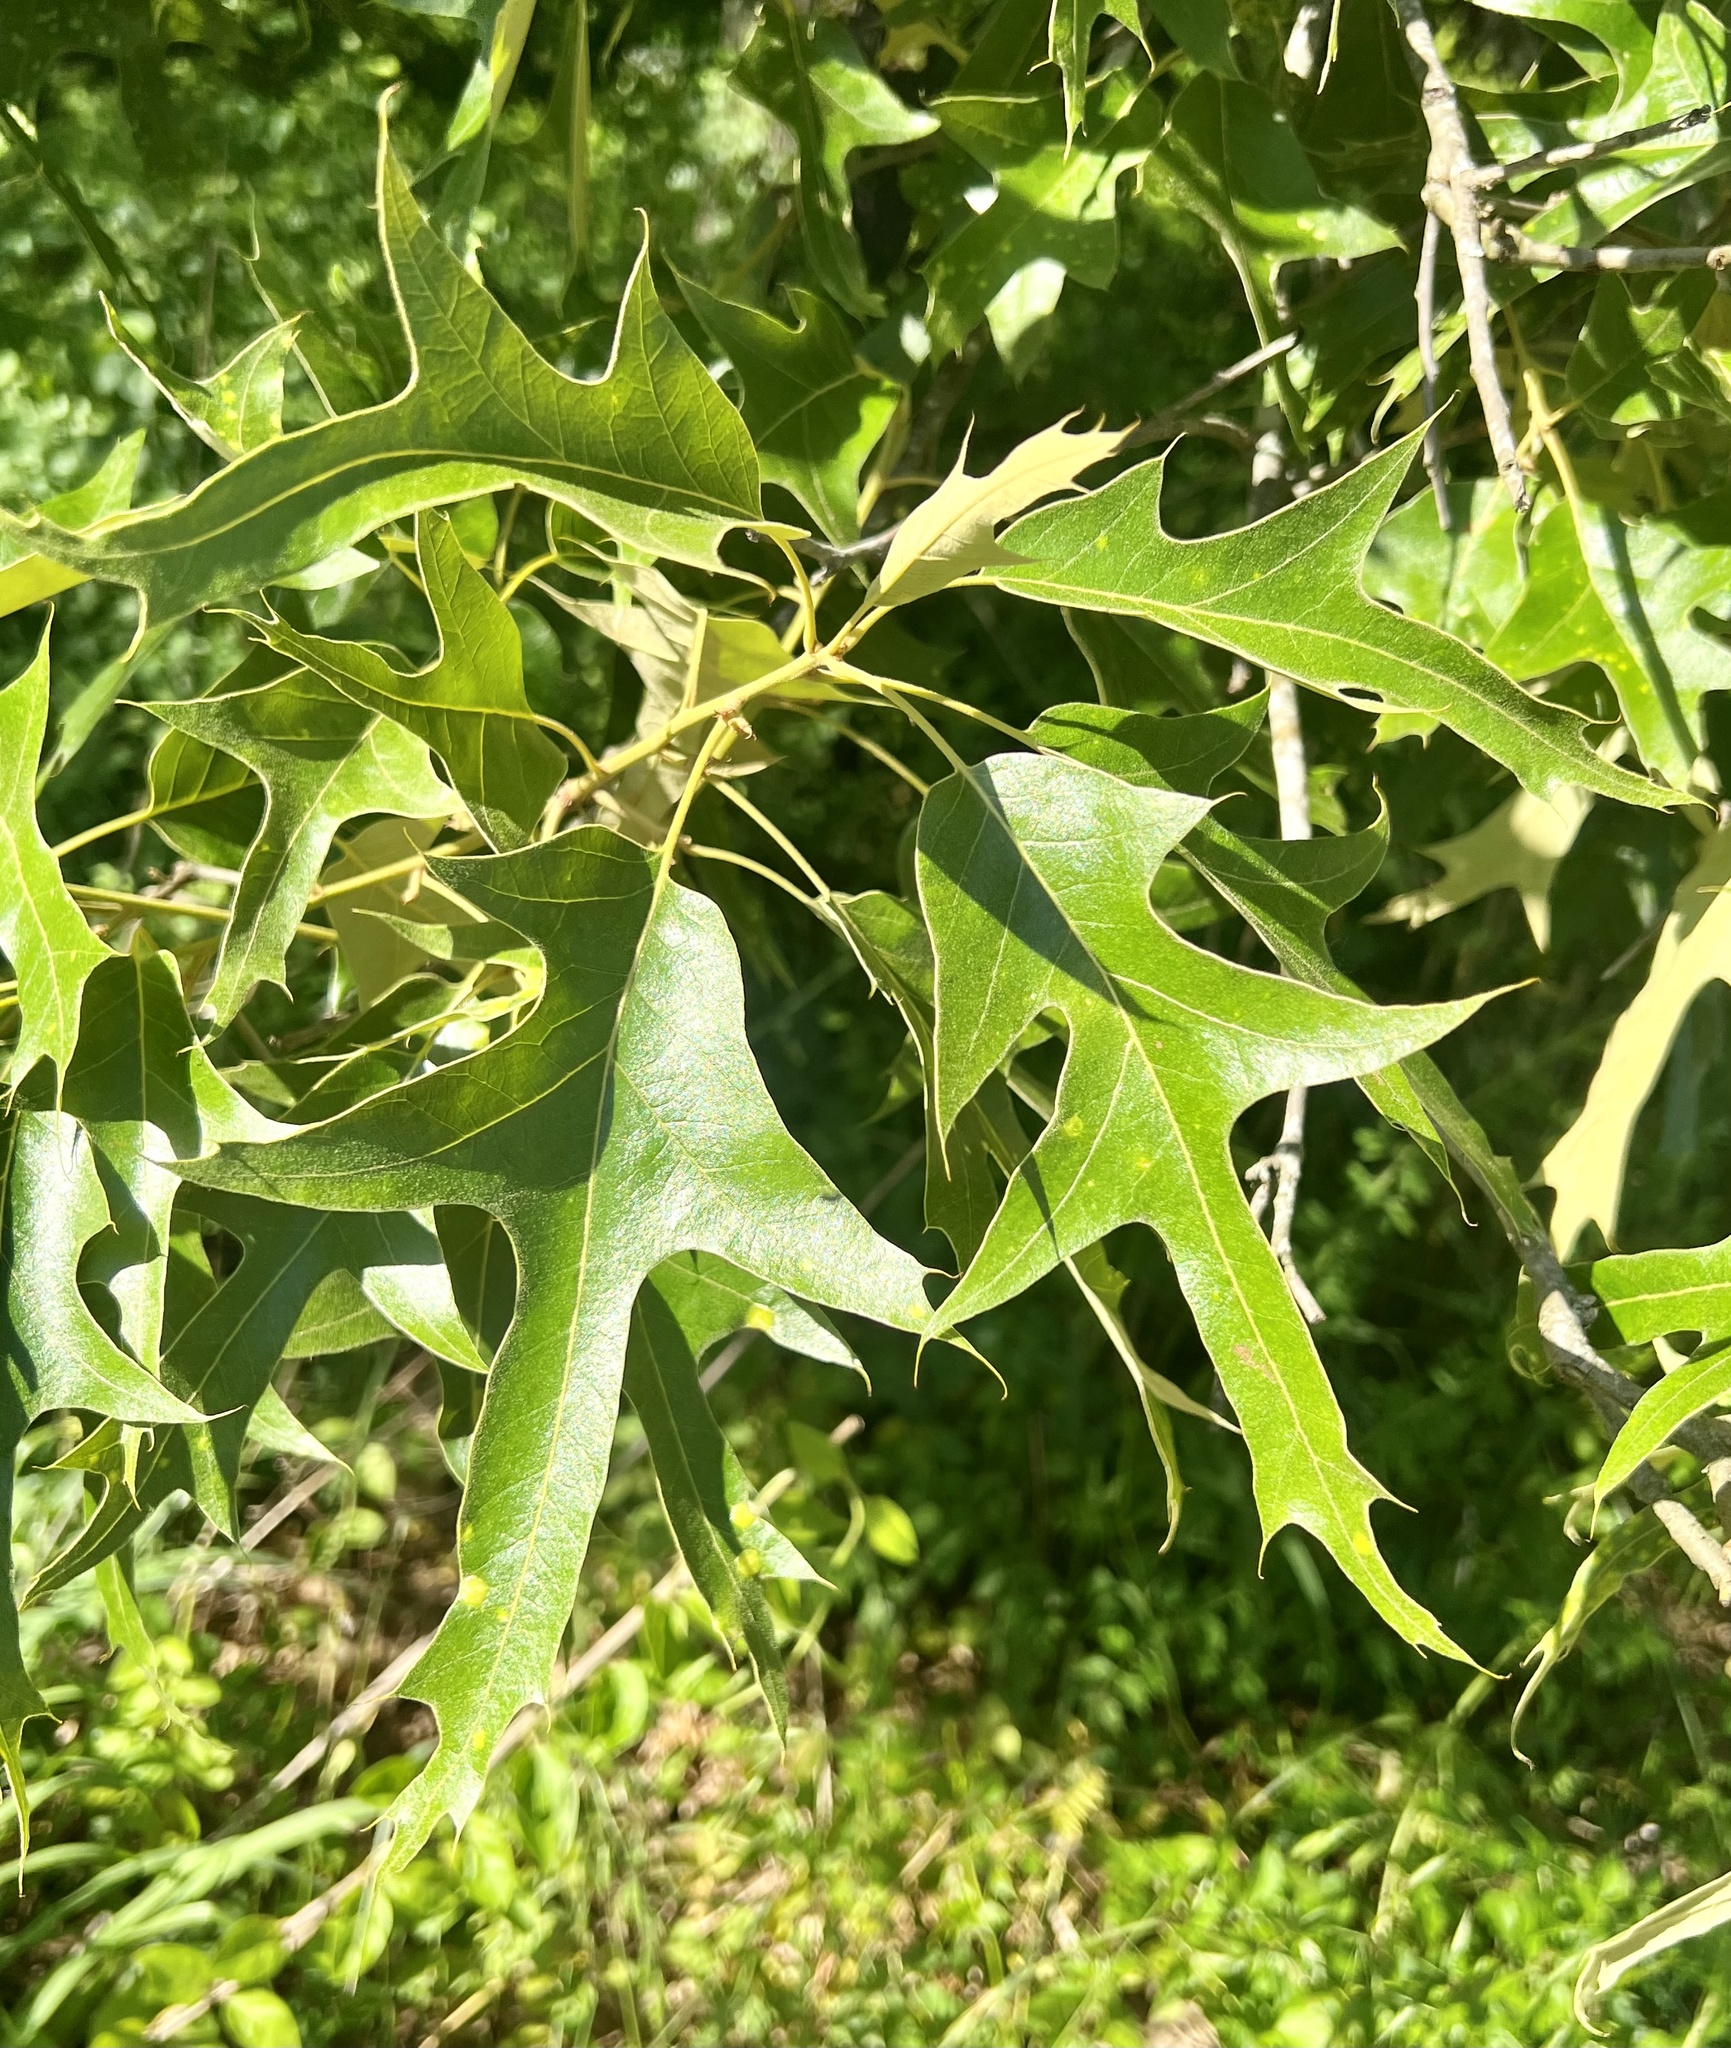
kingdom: Plantae
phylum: Tracheophyta
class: Magnoliopsida
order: Fagales
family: Fagaceae
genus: Quercus
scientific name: Quercus falcata
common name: Southern red oak
